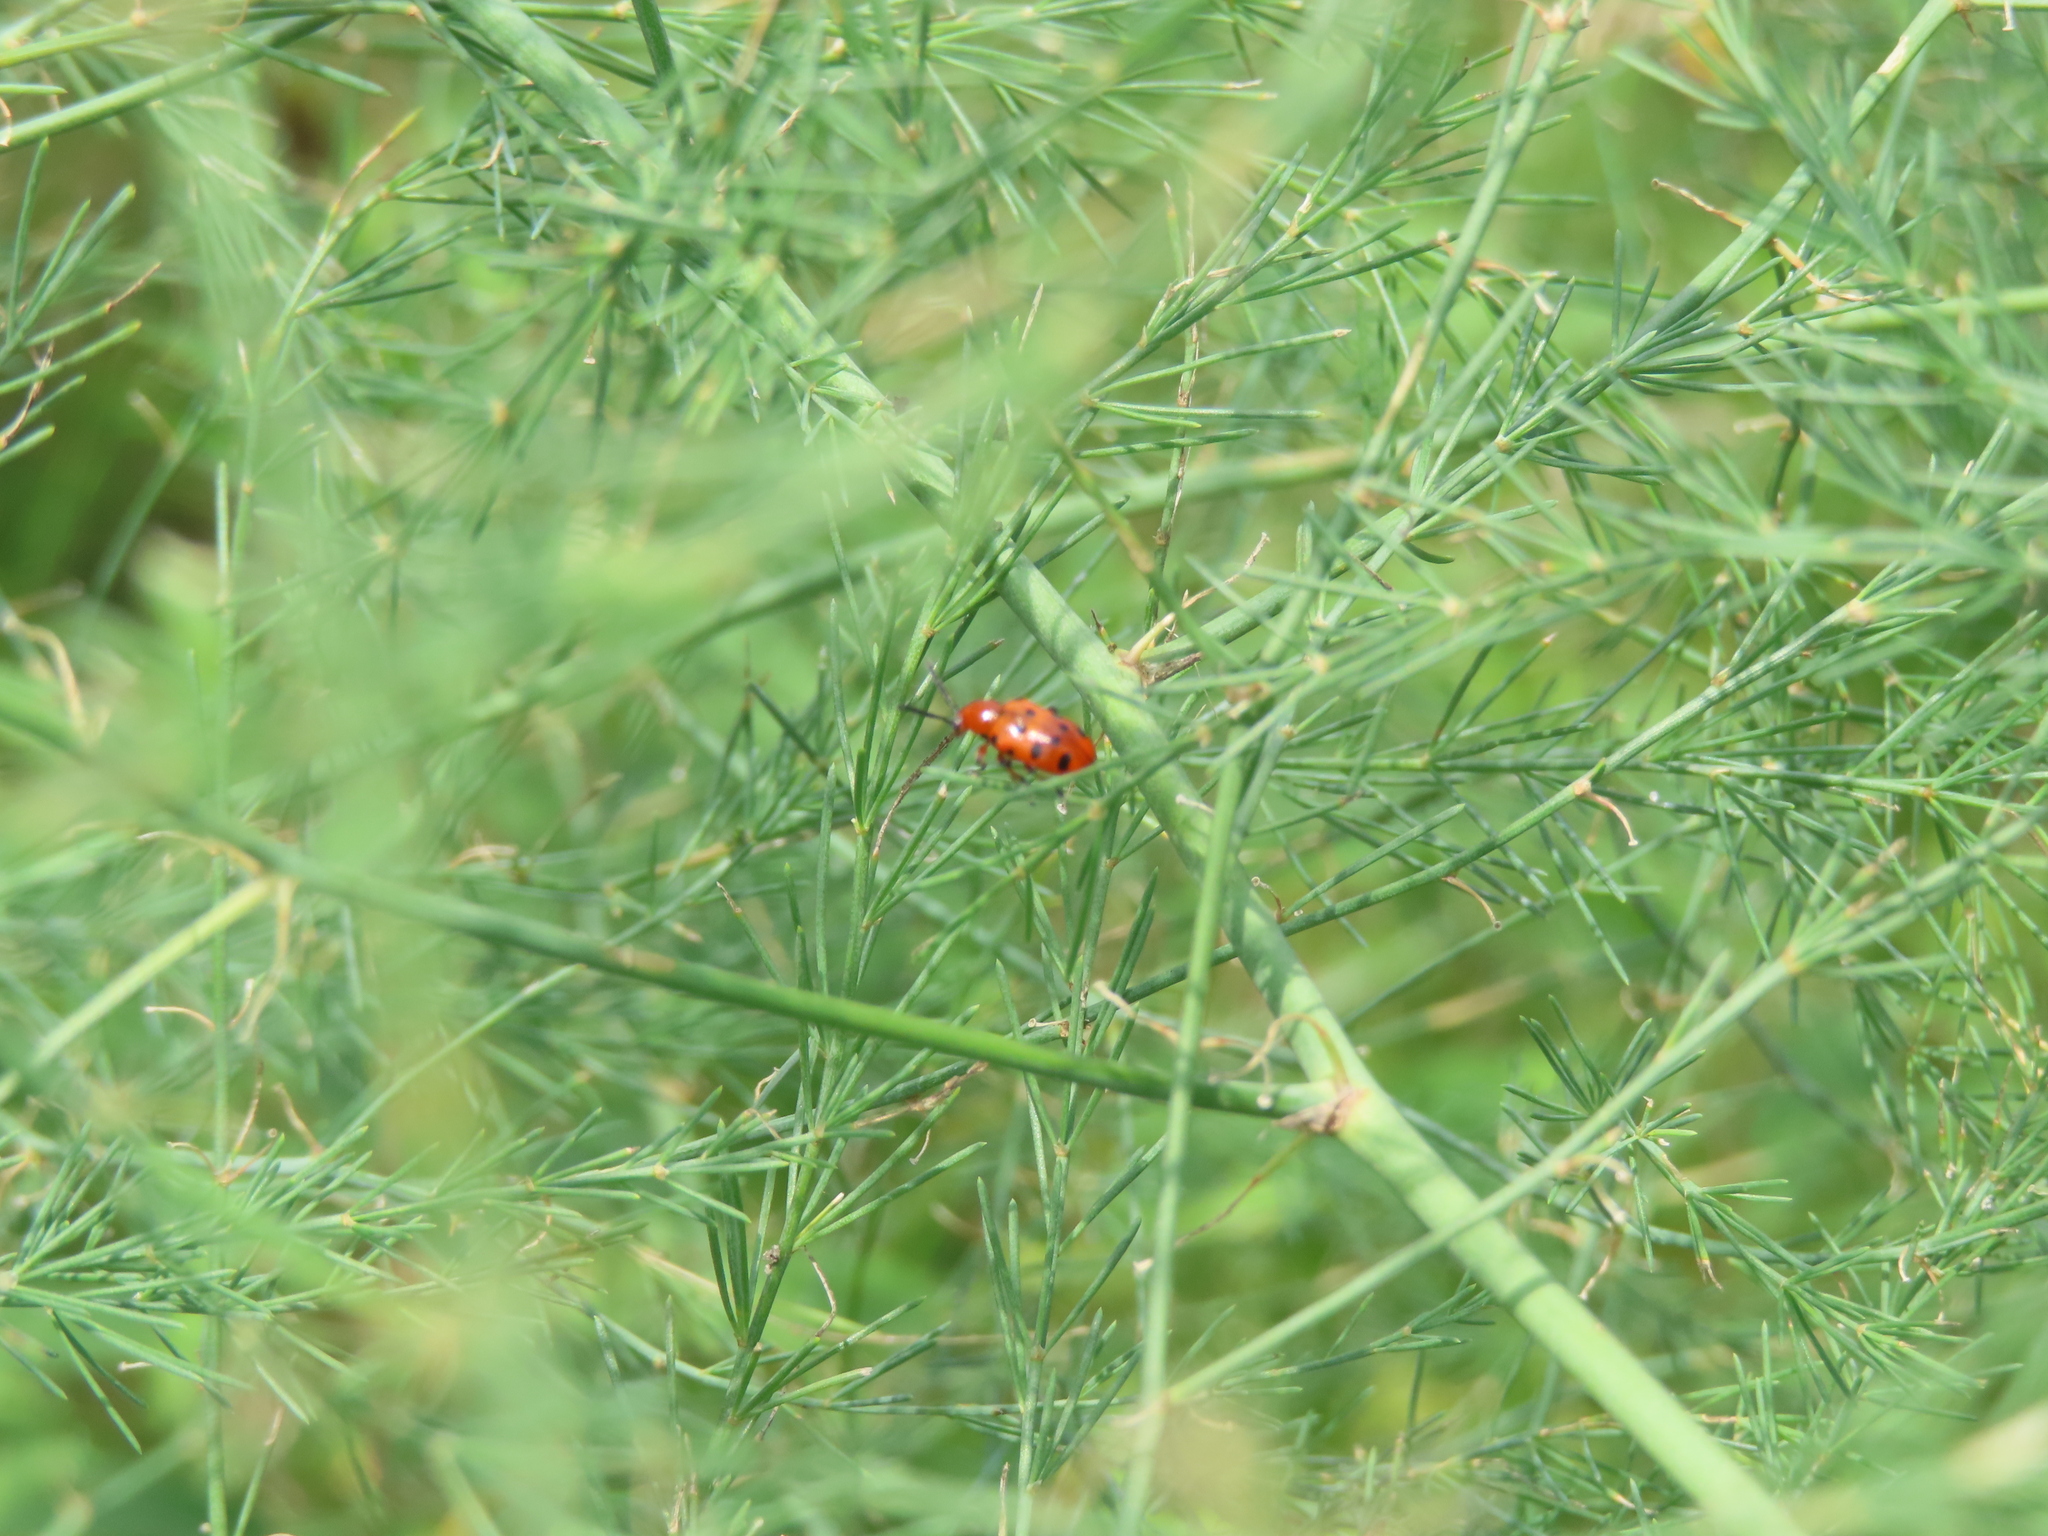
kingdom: Plantae
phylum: Tracheophyta
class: Liliopsida
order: Asparagales
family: Asparagaceae
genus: Asparagus
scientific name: Asparagus officinalis
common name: Garden asparagus
